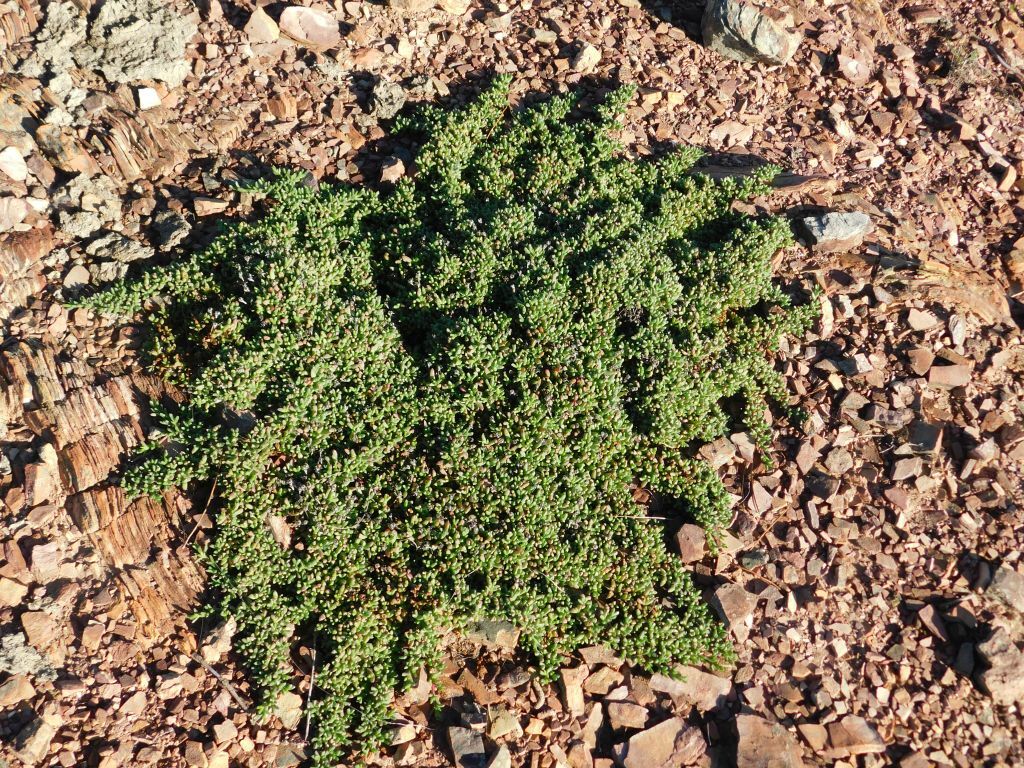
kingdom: Plantae
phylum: Tracheophyta
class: Magnoliopsida
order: Caryophyllales
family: Aizoaceae
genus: Ruschia
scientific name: Ruschia lineolata
